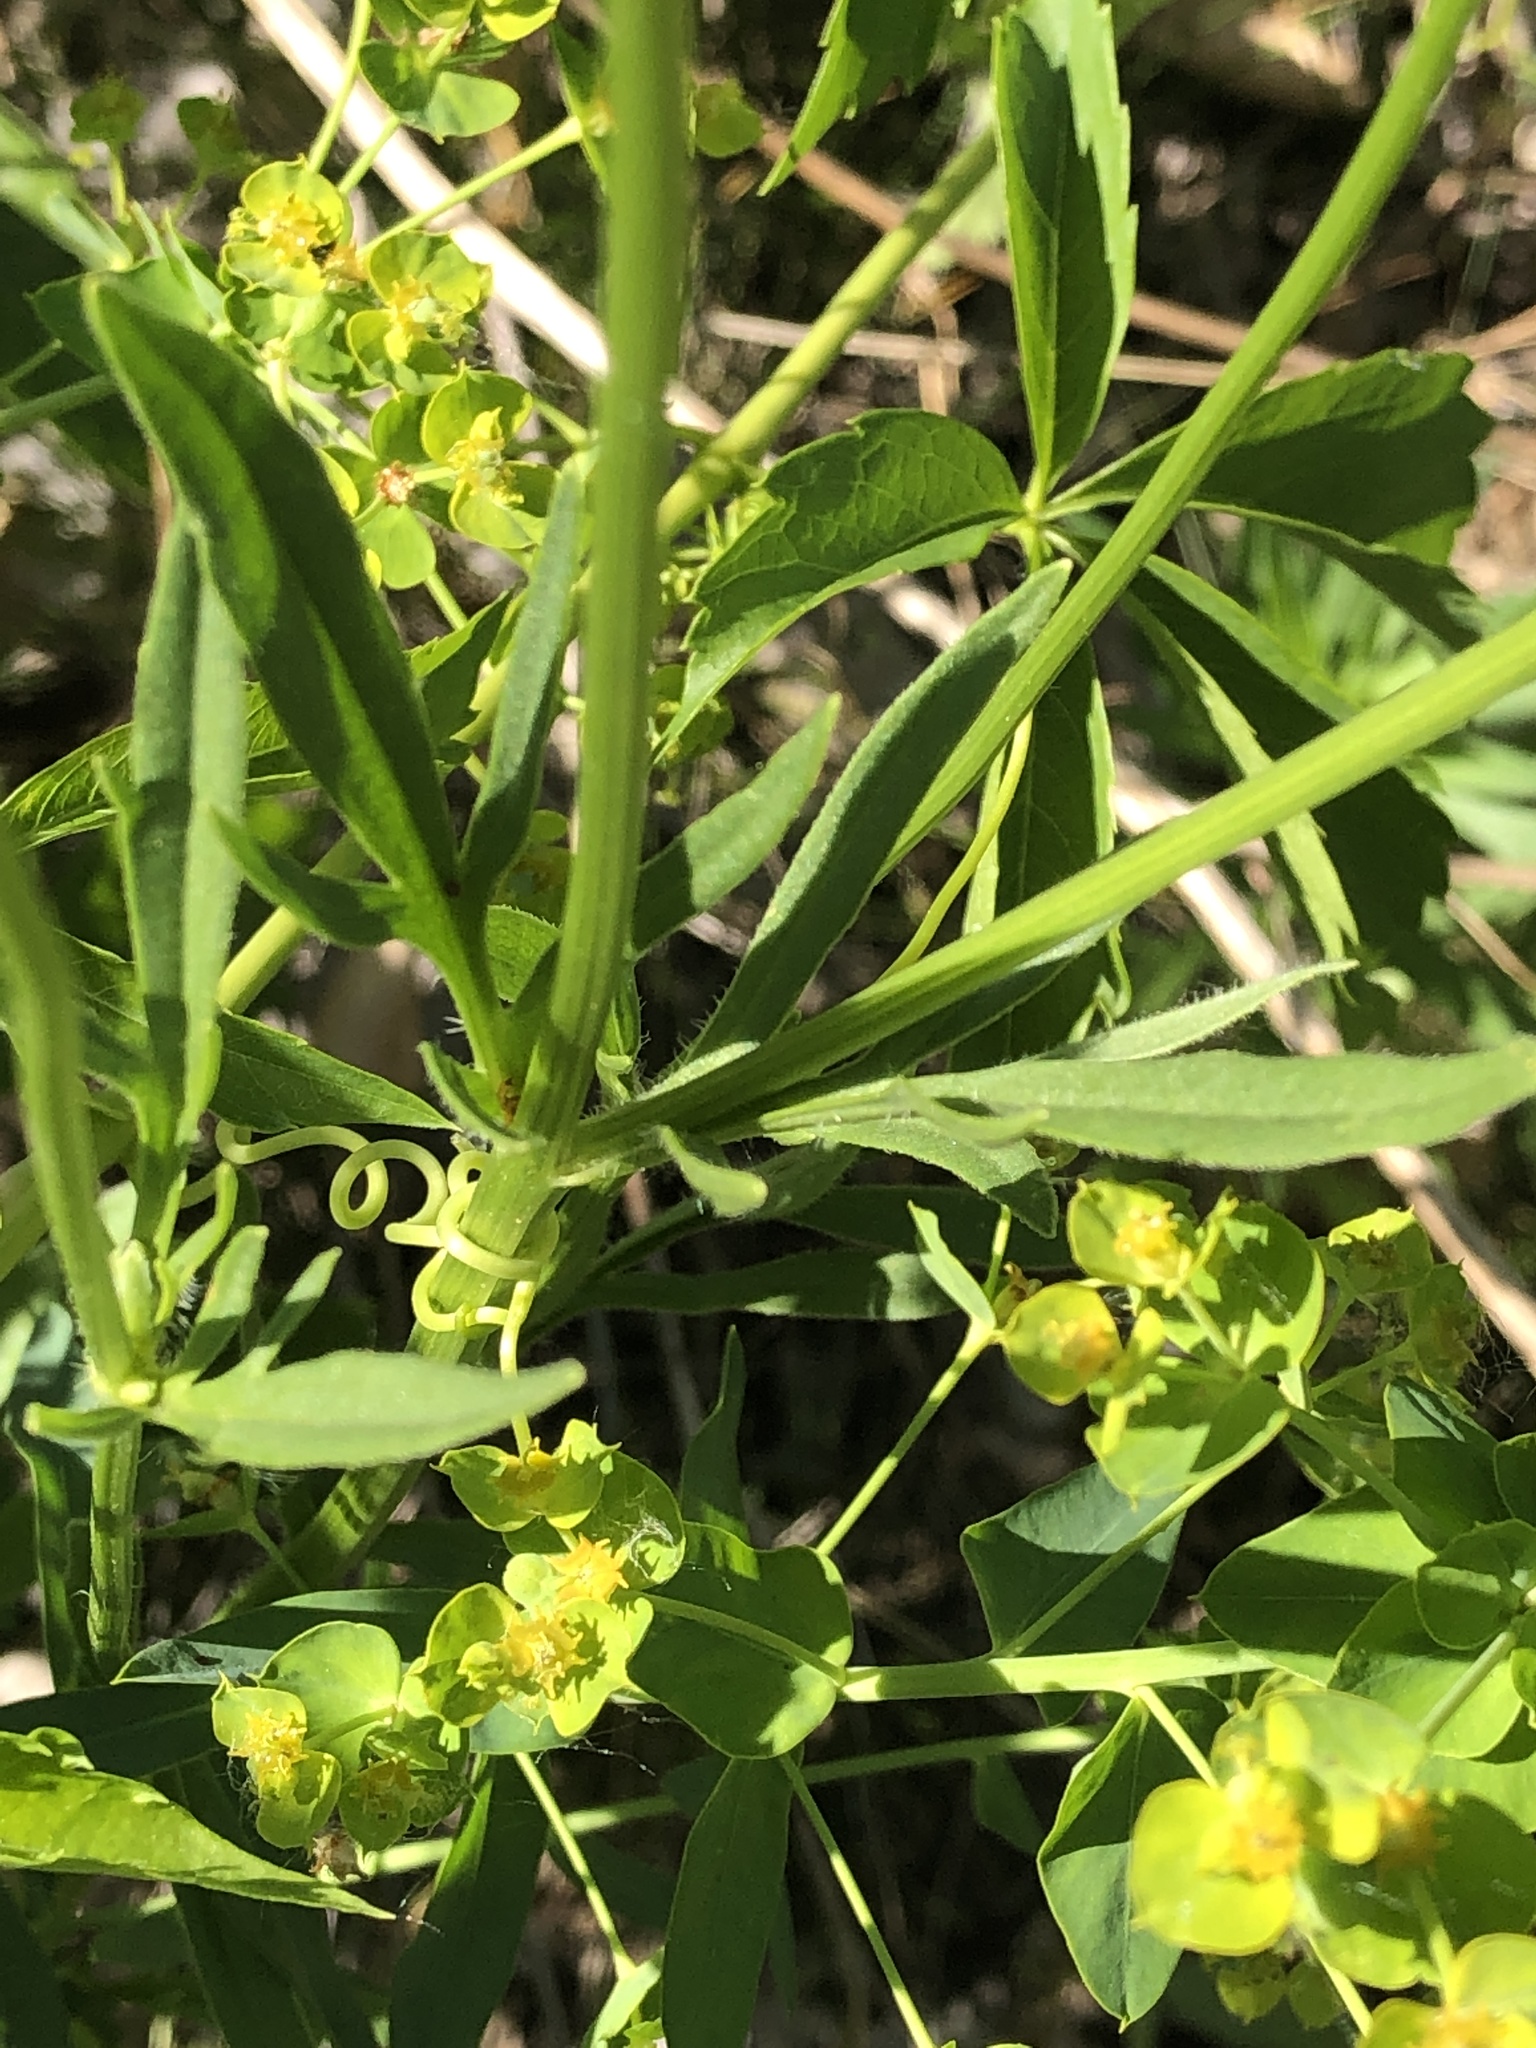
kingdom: Plantae
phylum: Tracheophyta
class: Magnoliopsida
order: Asterales
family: Asteraceae
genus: Coreopsis
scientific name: Coreopsis lanceolata
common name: Garden coreopsis
